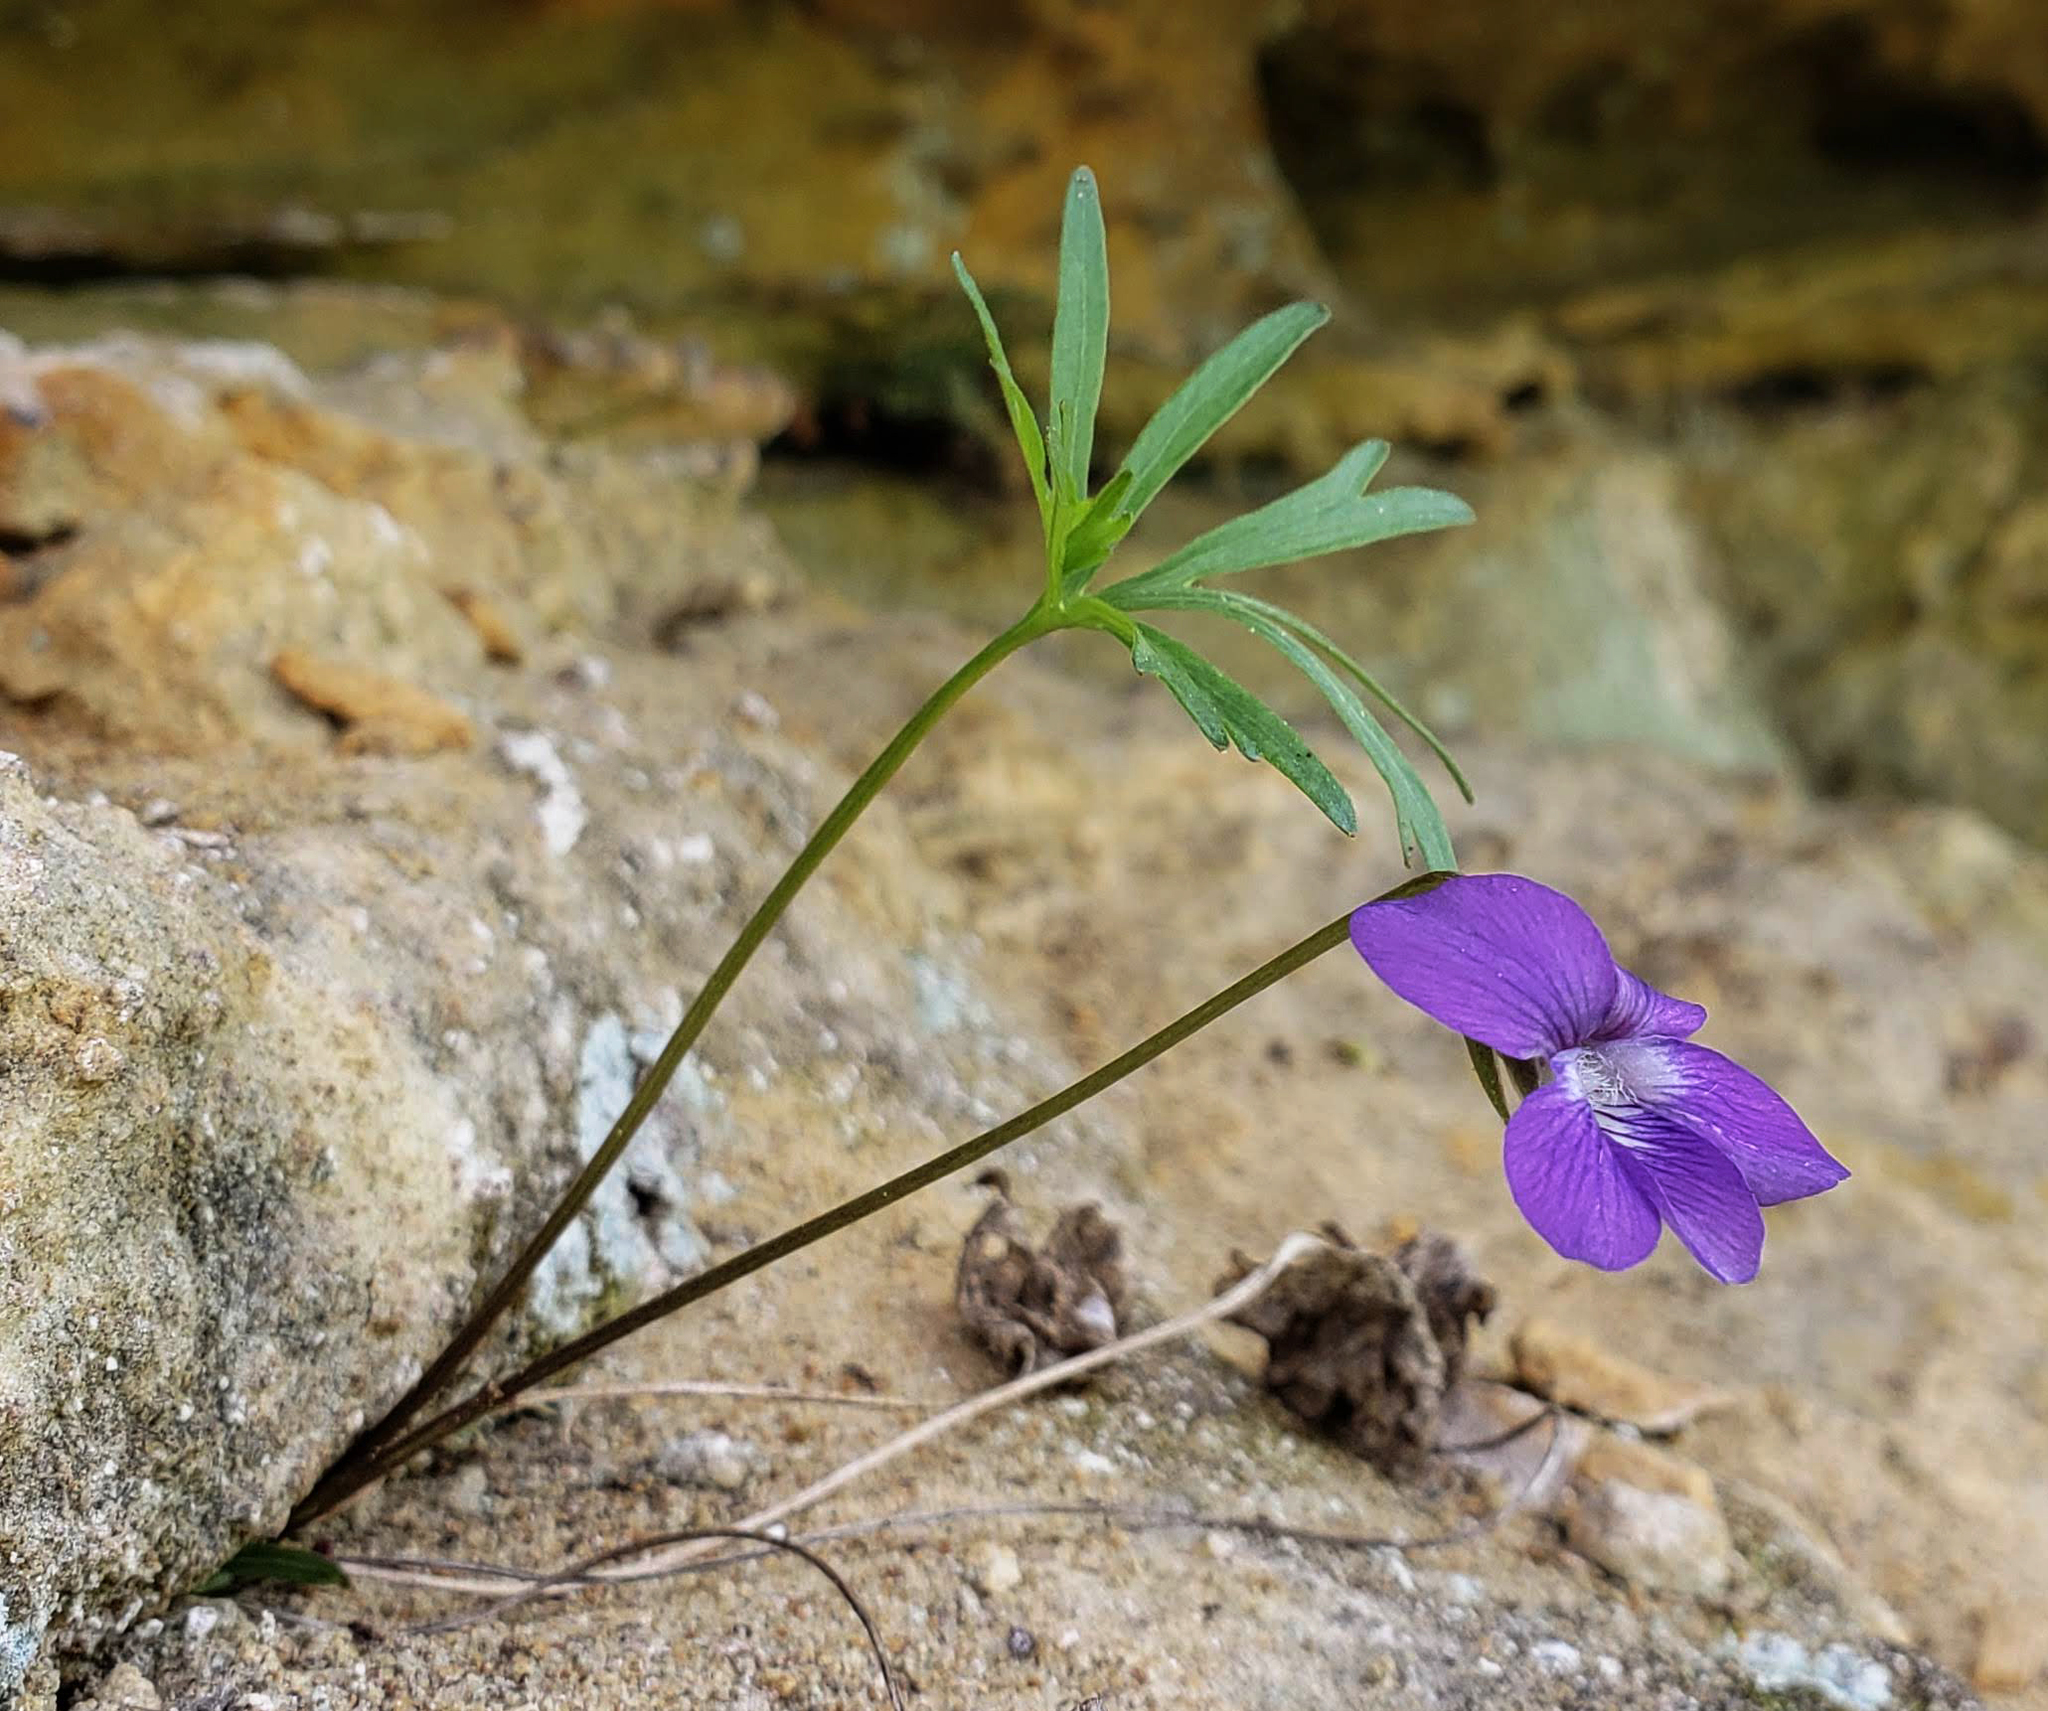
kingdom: Plantae
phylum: Tracheophyta
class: Magnoliopsida
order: Malpighiales
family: Violaceae
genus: Viola
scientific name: Viola pedatifida
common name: Prairie violet
